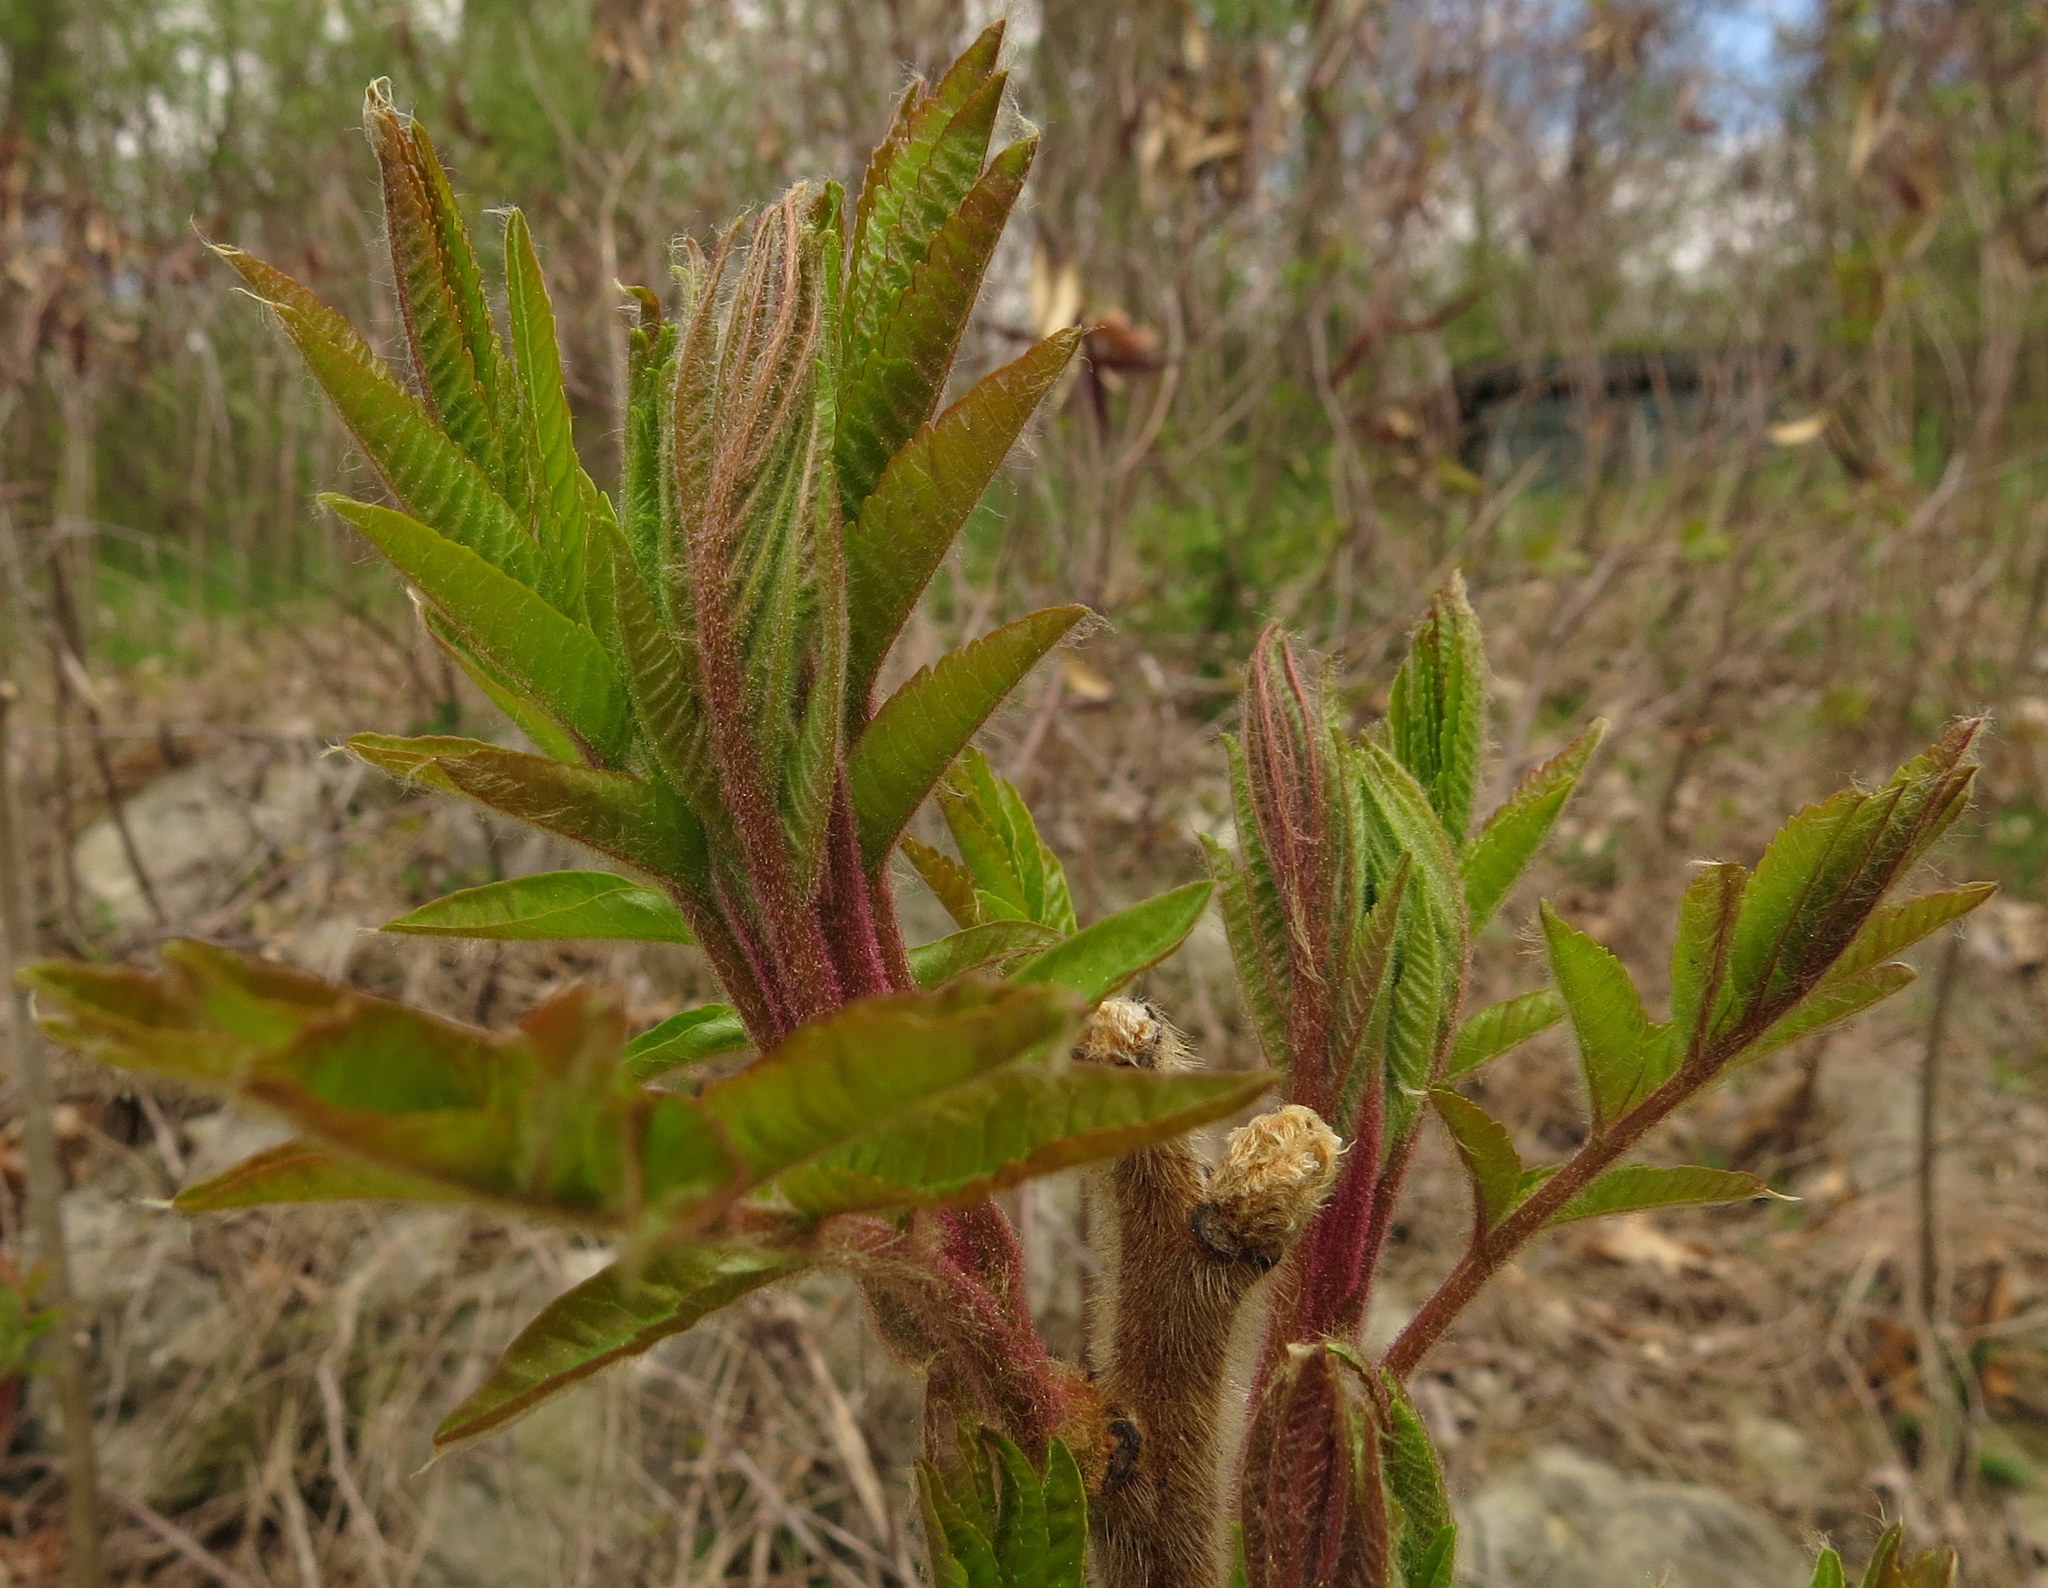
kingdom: Plantae
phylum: Tracheophyta
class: Magnoliopsida
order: Sapindales
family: Anacardiaceae
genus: Rhus
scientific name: Rhus typhina
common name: Staghorn sumac
